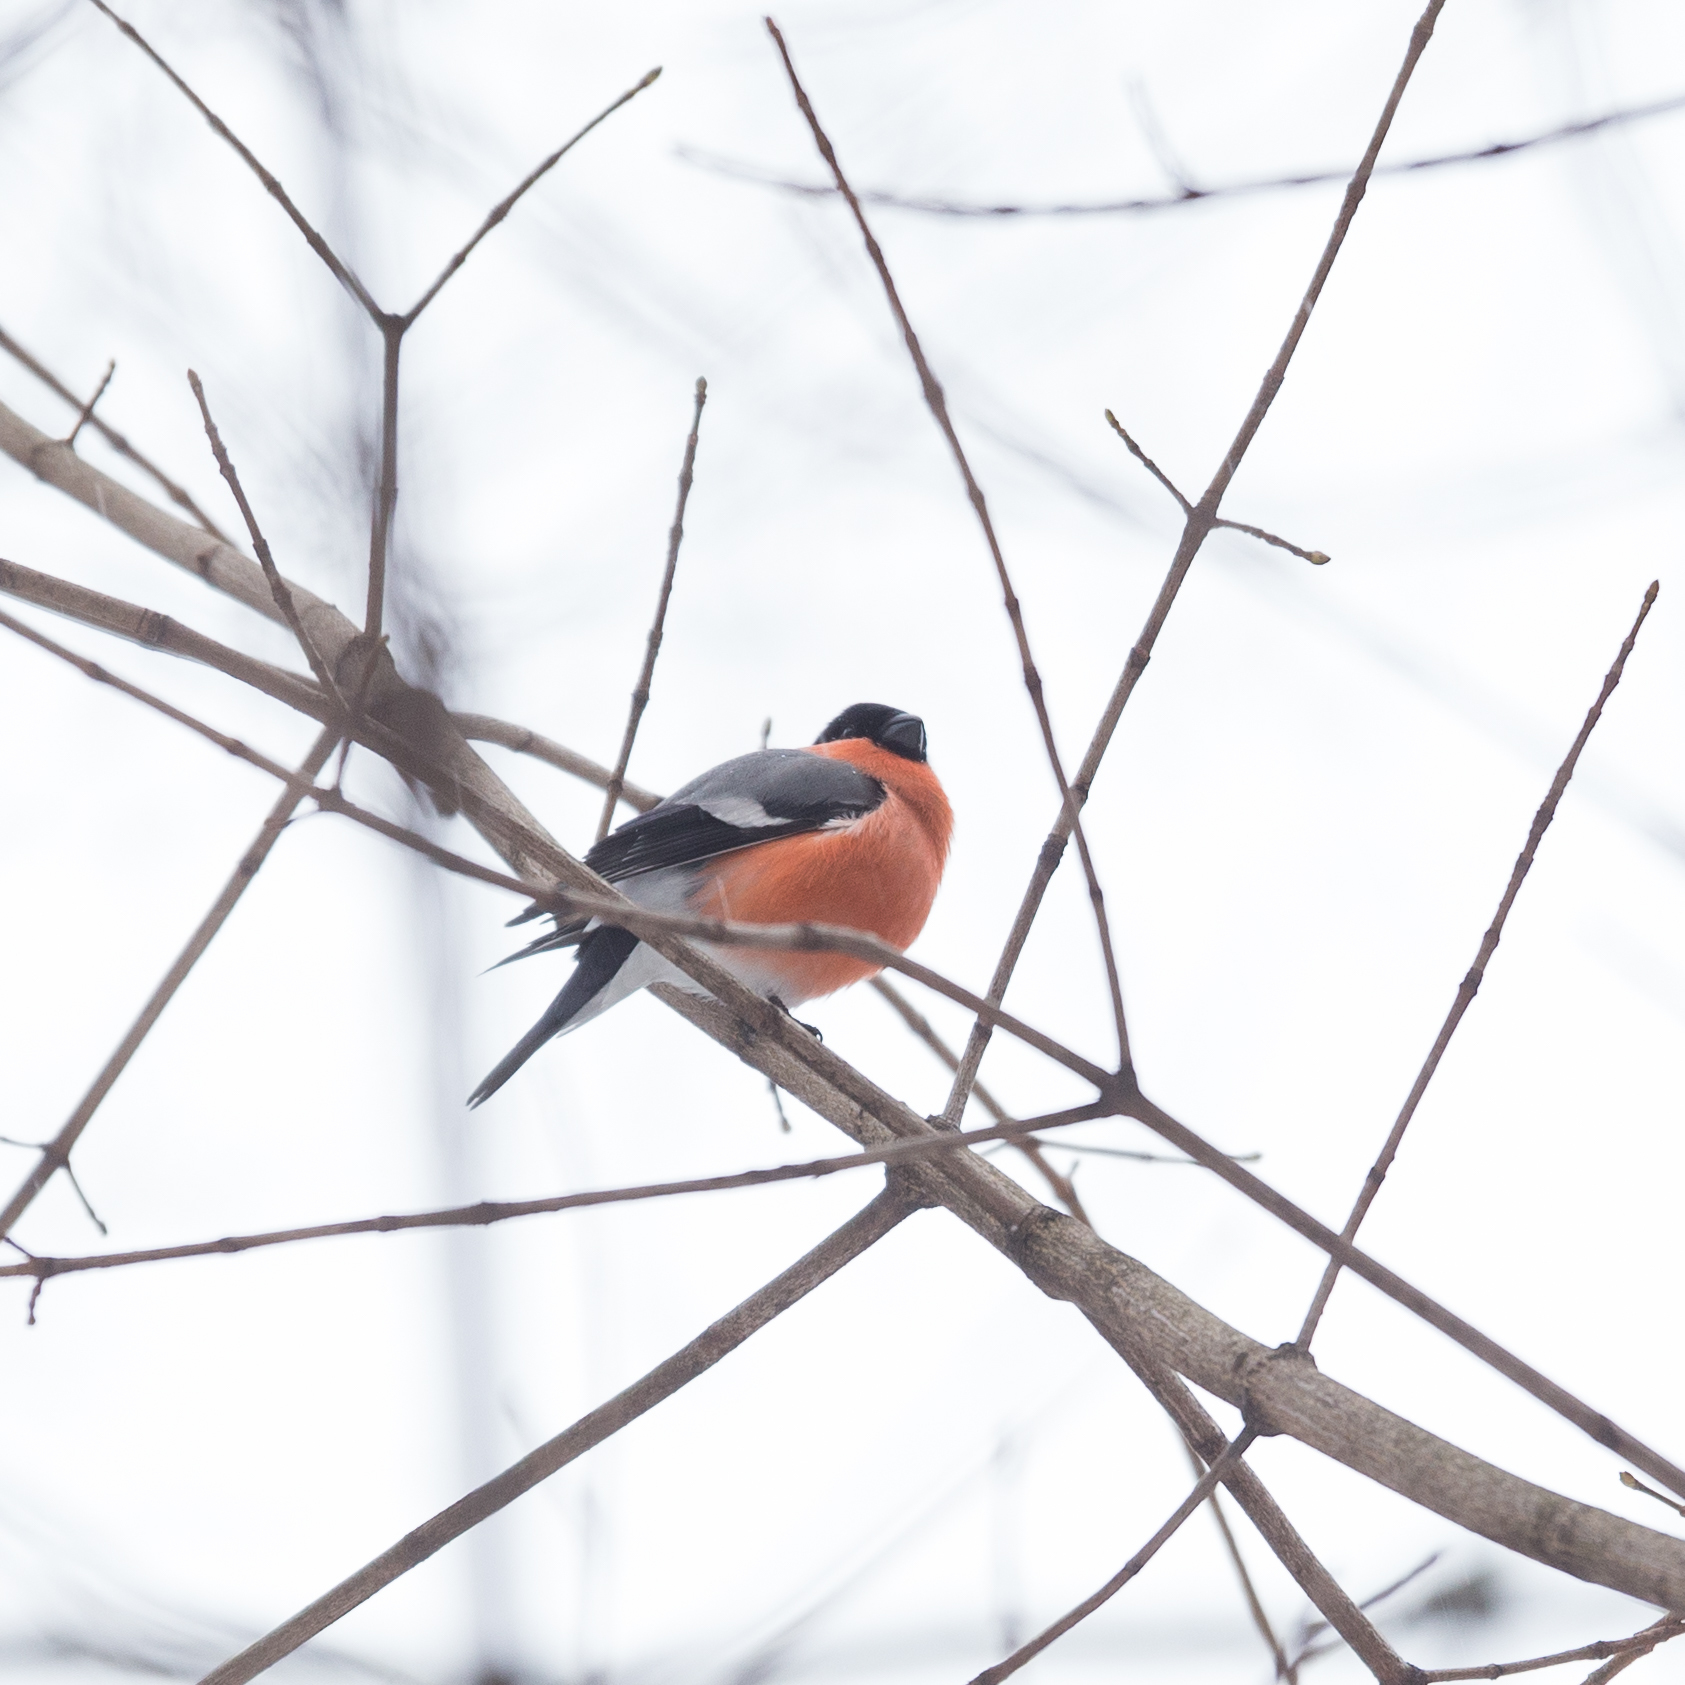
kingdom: Animalia
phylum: Chordata
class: Aves
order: Passeriformes
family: Fringillidae
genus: Pyrrhula
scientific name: Pyrrhula pyrrhula
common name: Eurasian bullfinch
